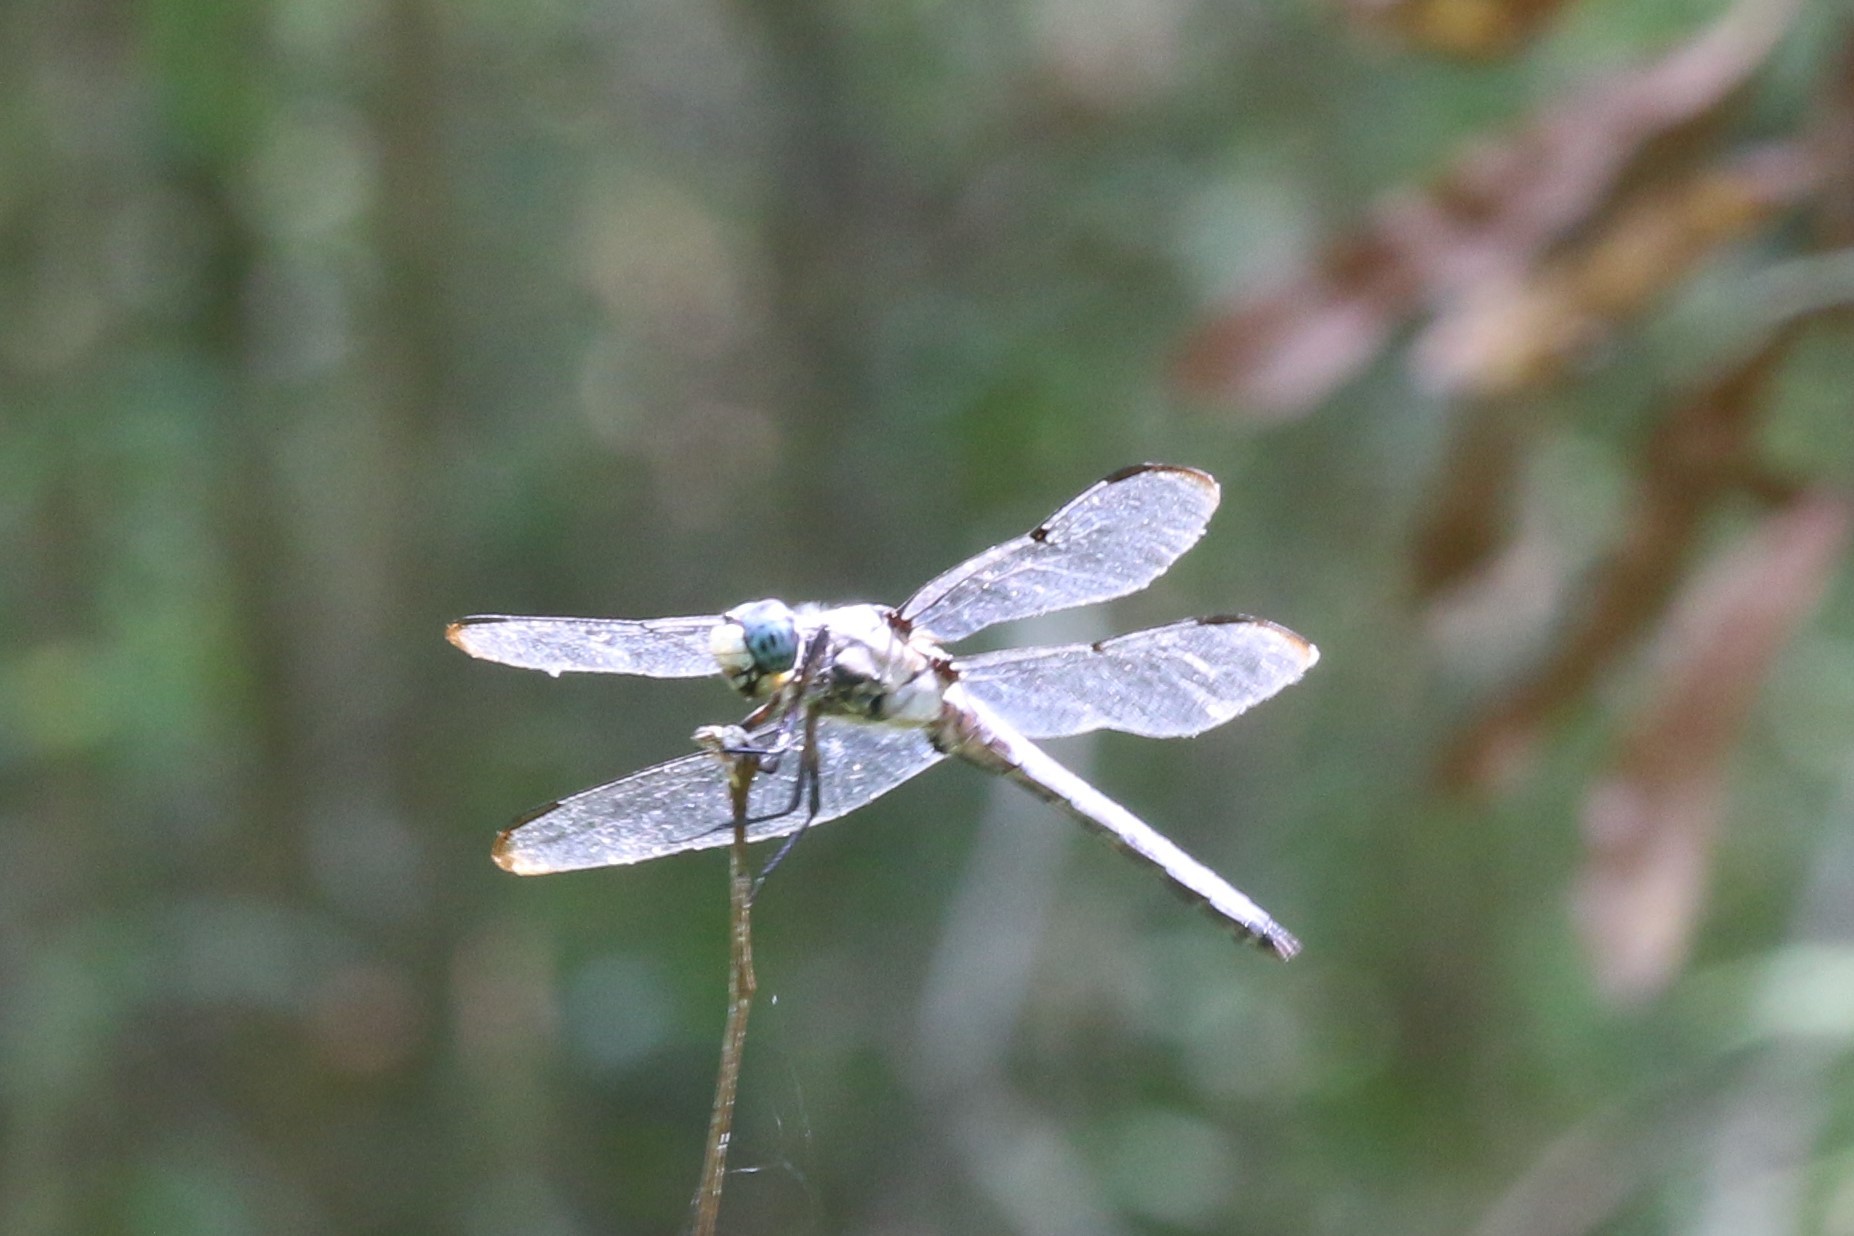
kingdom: Animalia
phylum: Arthropoda
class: Insecta
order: Odonata
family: Libellulidae
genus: Libellula
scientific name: Libellula vibrans
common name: Great blue skimmer
